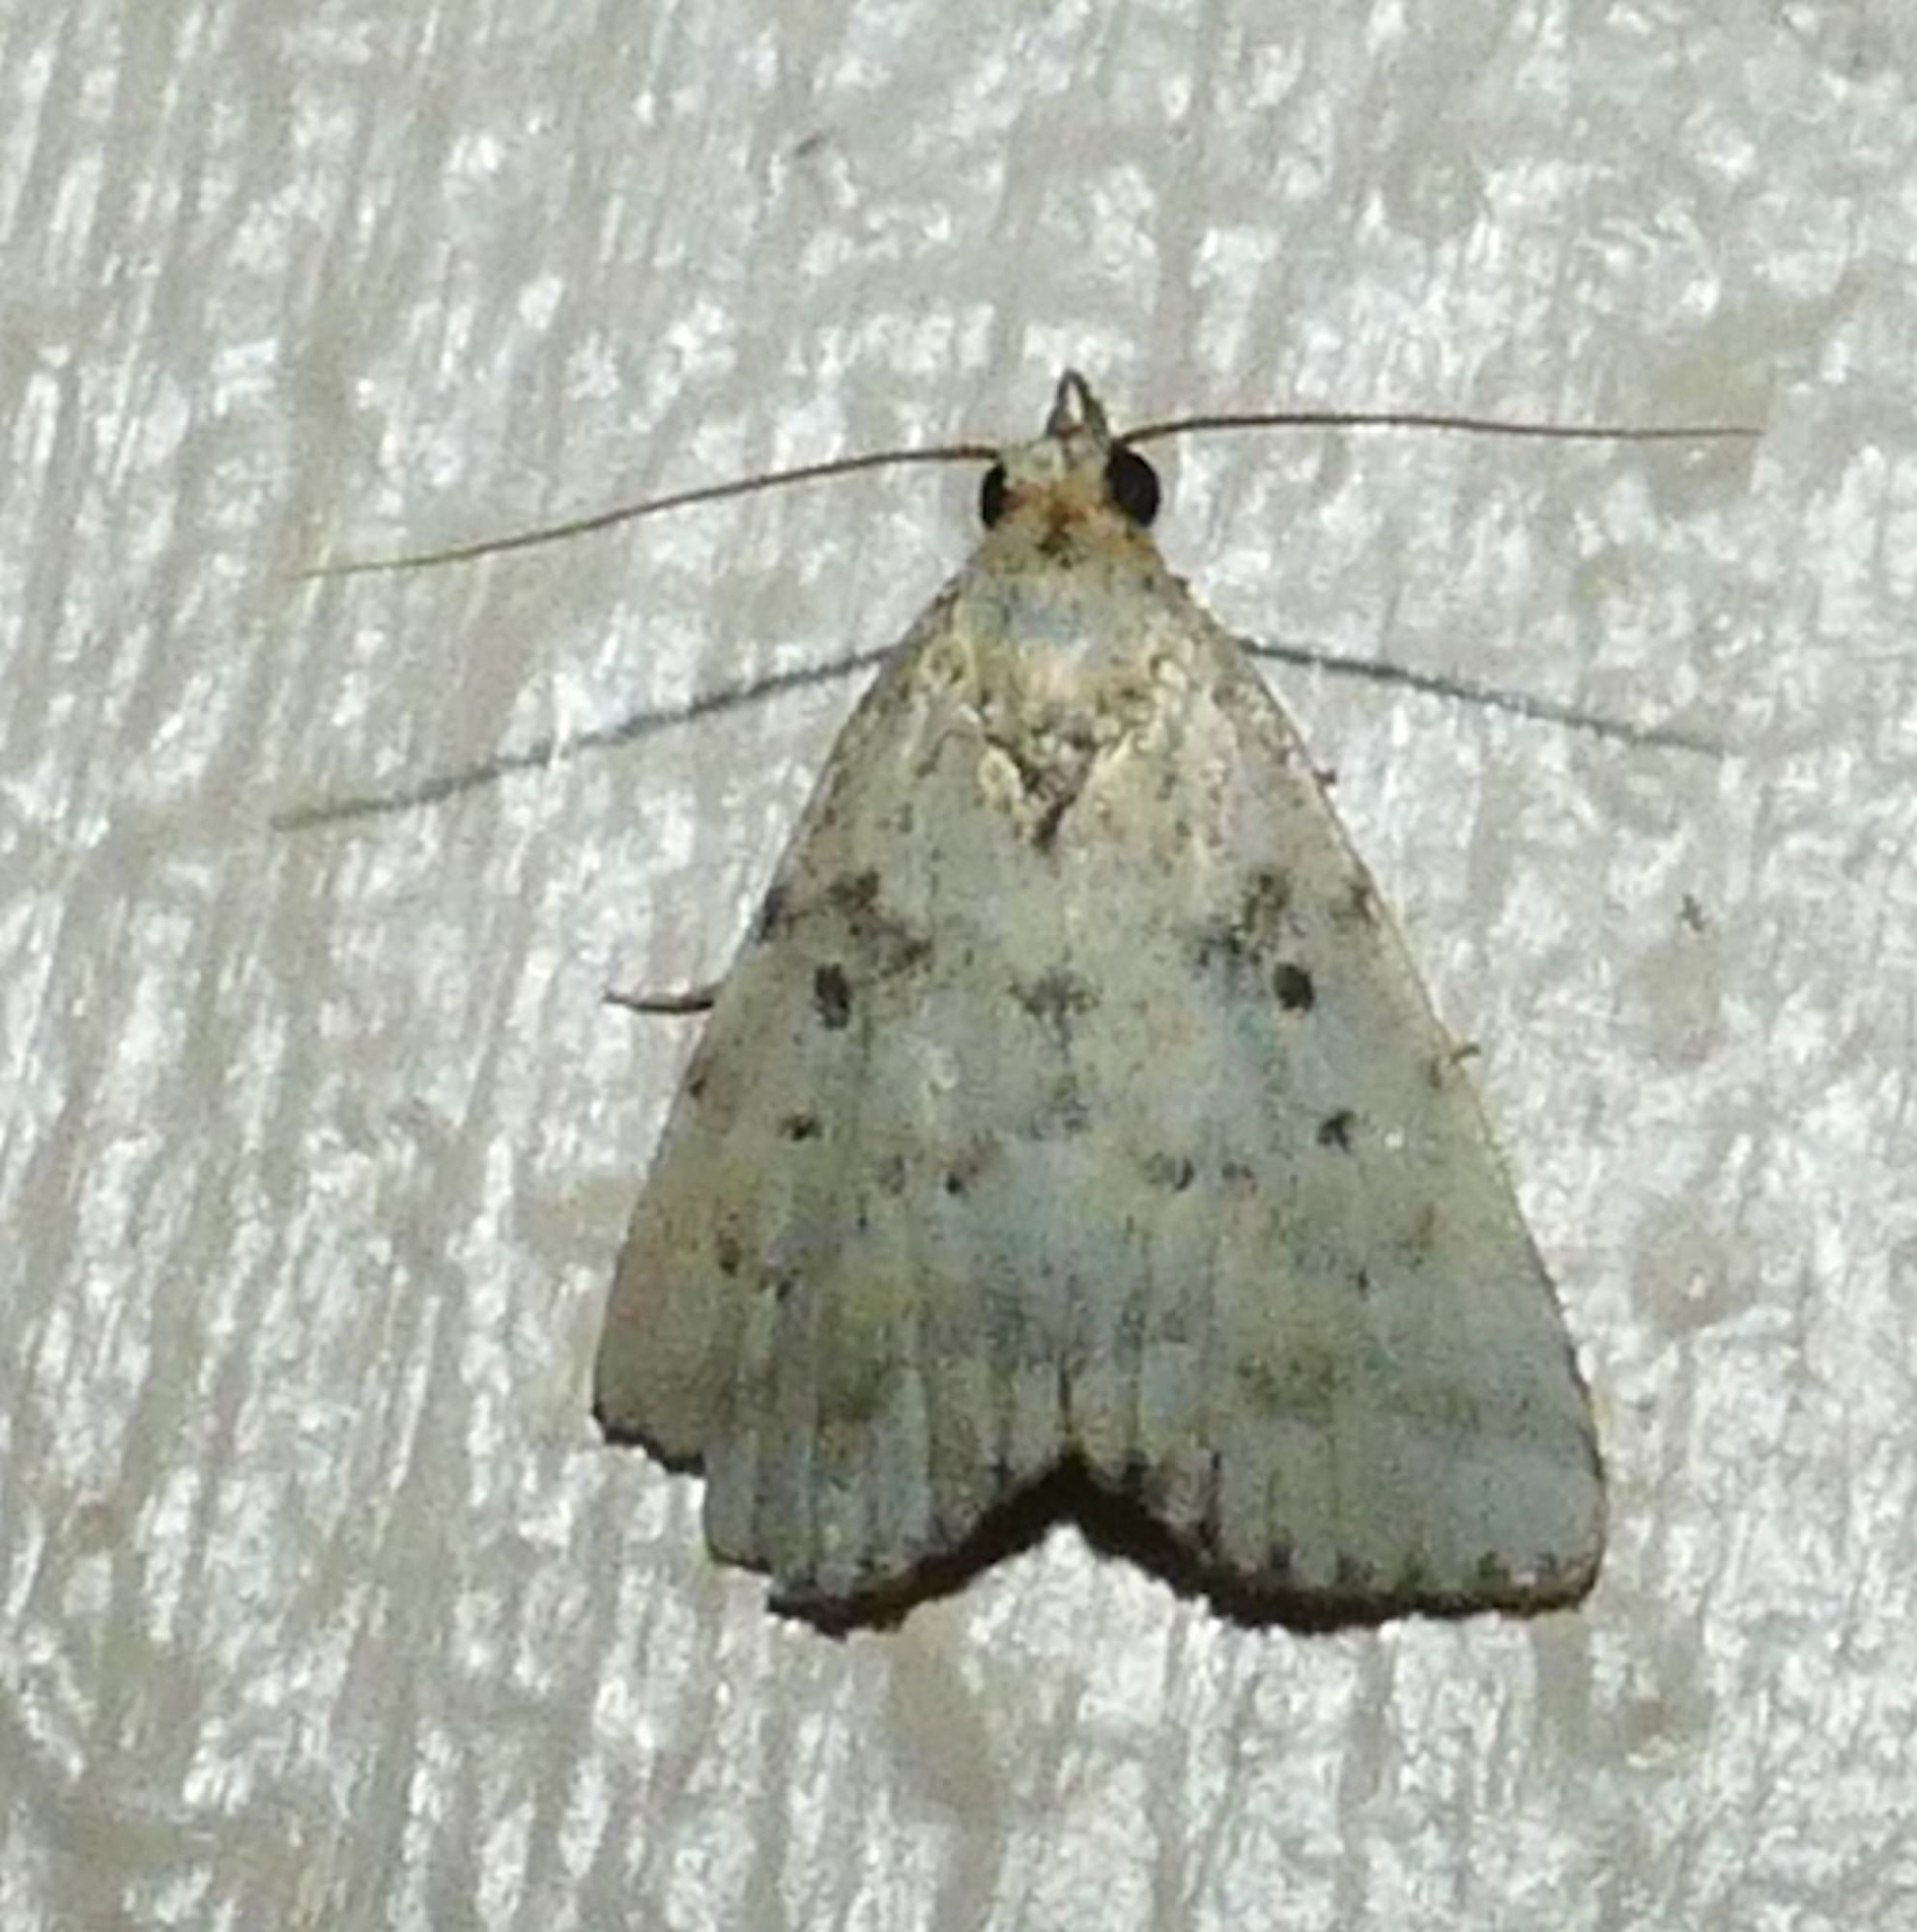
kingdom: Animalia
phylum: Arthropoda
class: Insecta
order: Lepidoptera
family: Erebidae
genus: Arugisa
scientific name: Arugisa lutea
